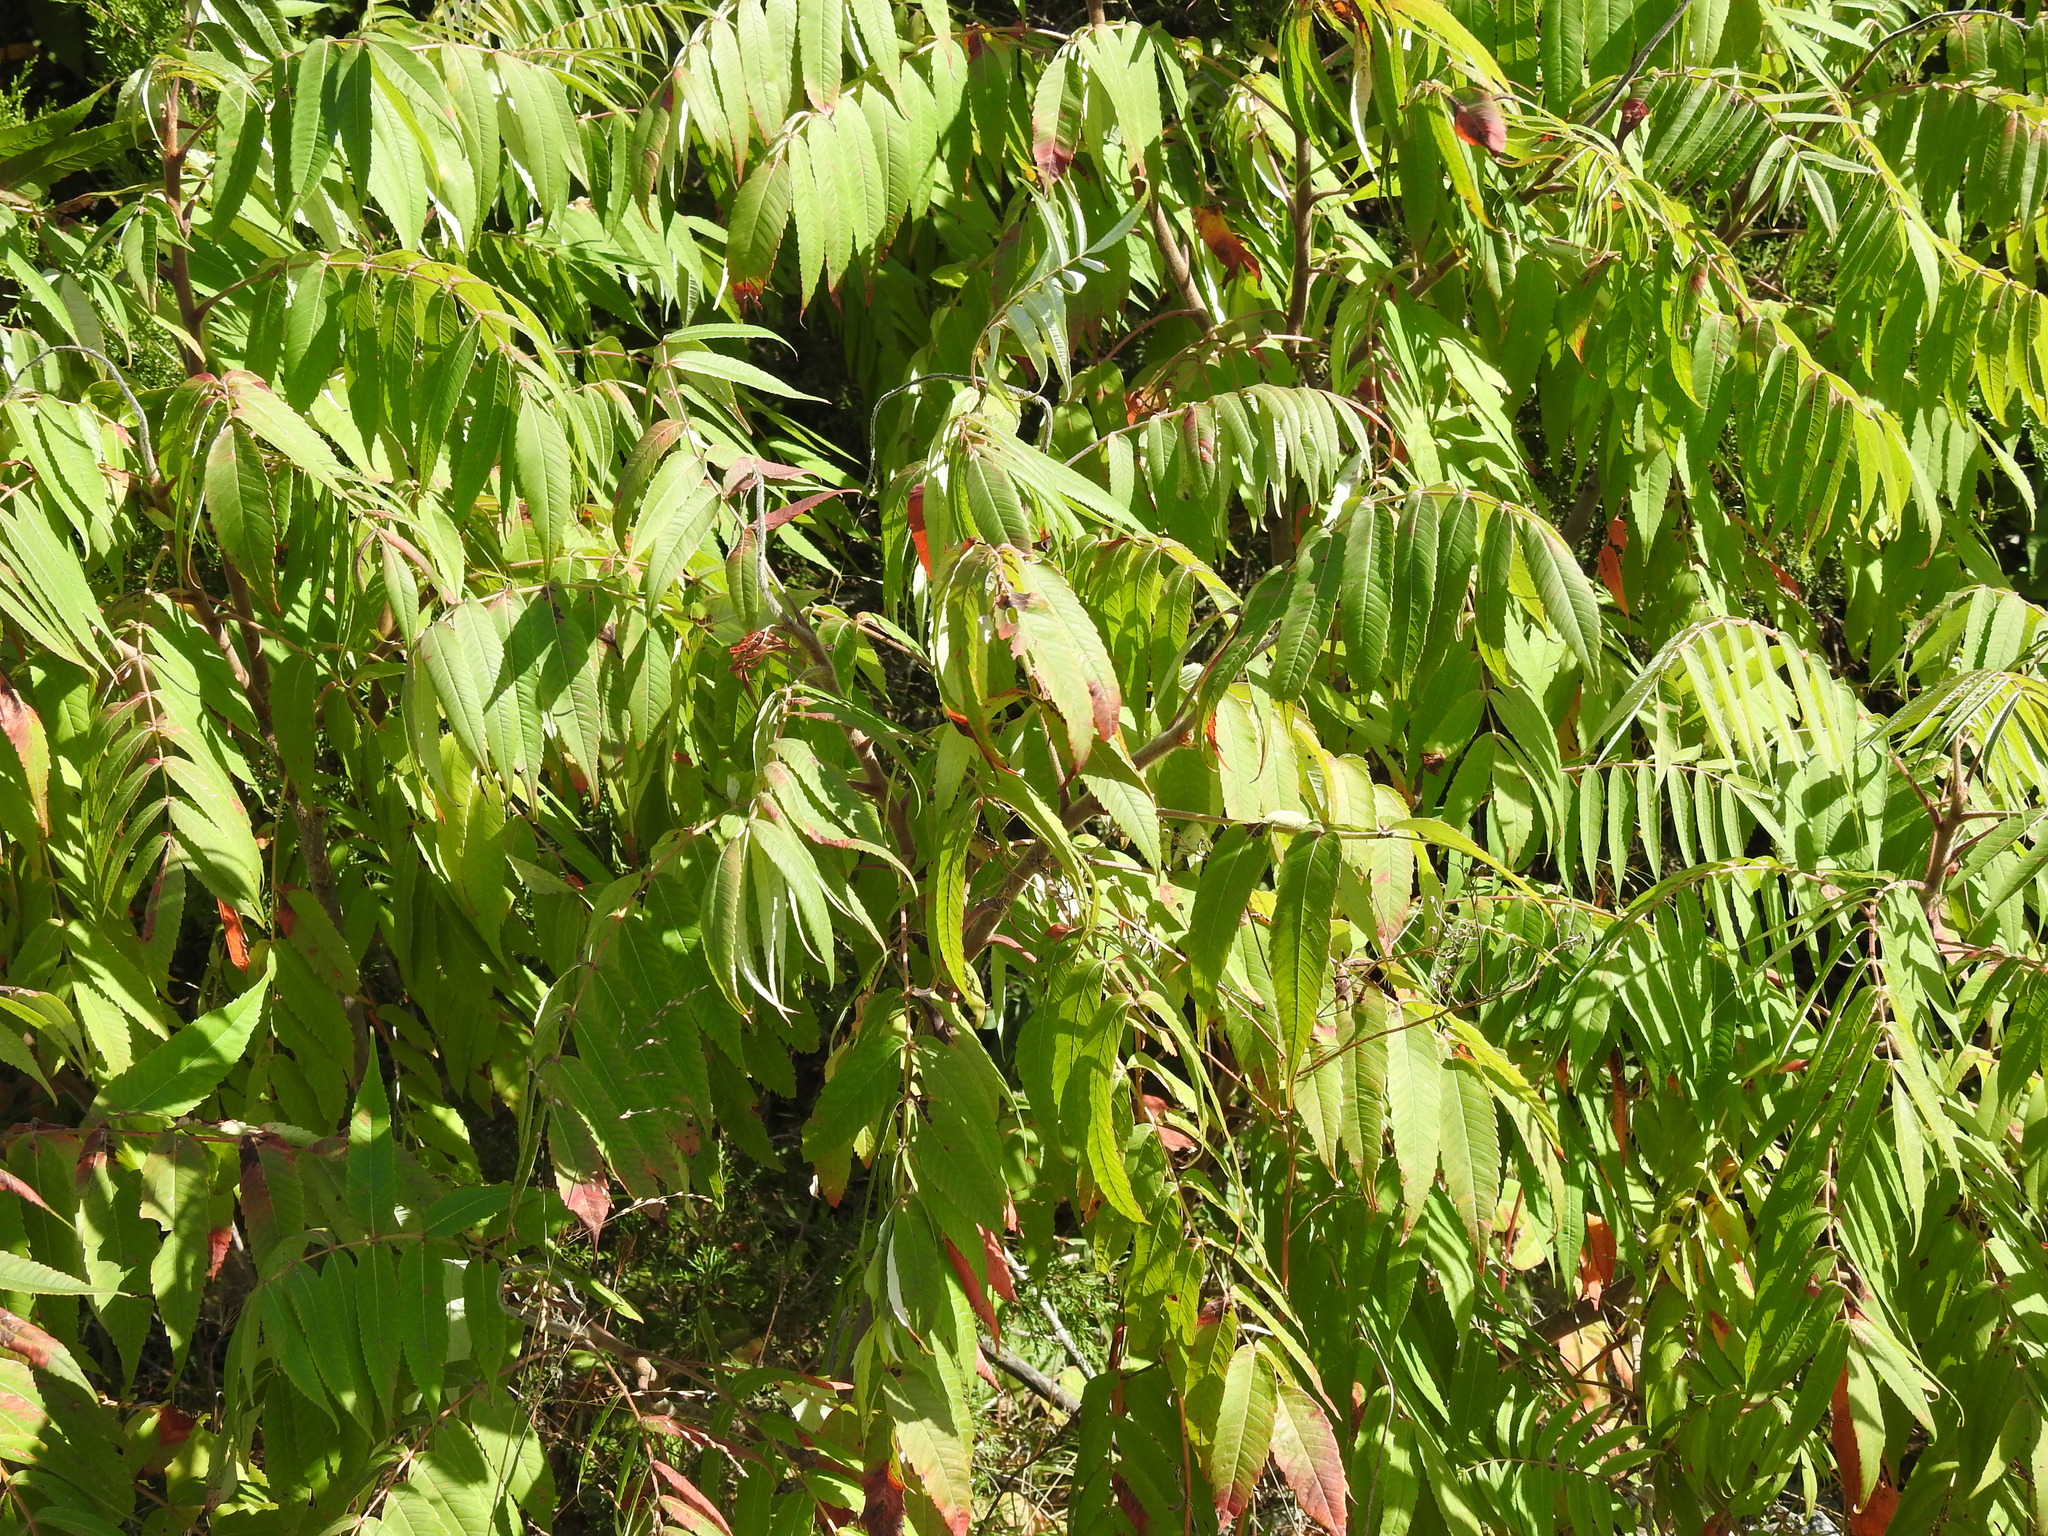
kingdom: Plantae
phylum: Tracheophyta
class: Magnoliopsida
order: Sapindales
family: Anacardiaceae
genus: Rhus
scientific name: Rhus typhina
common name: Staghorn sumac
